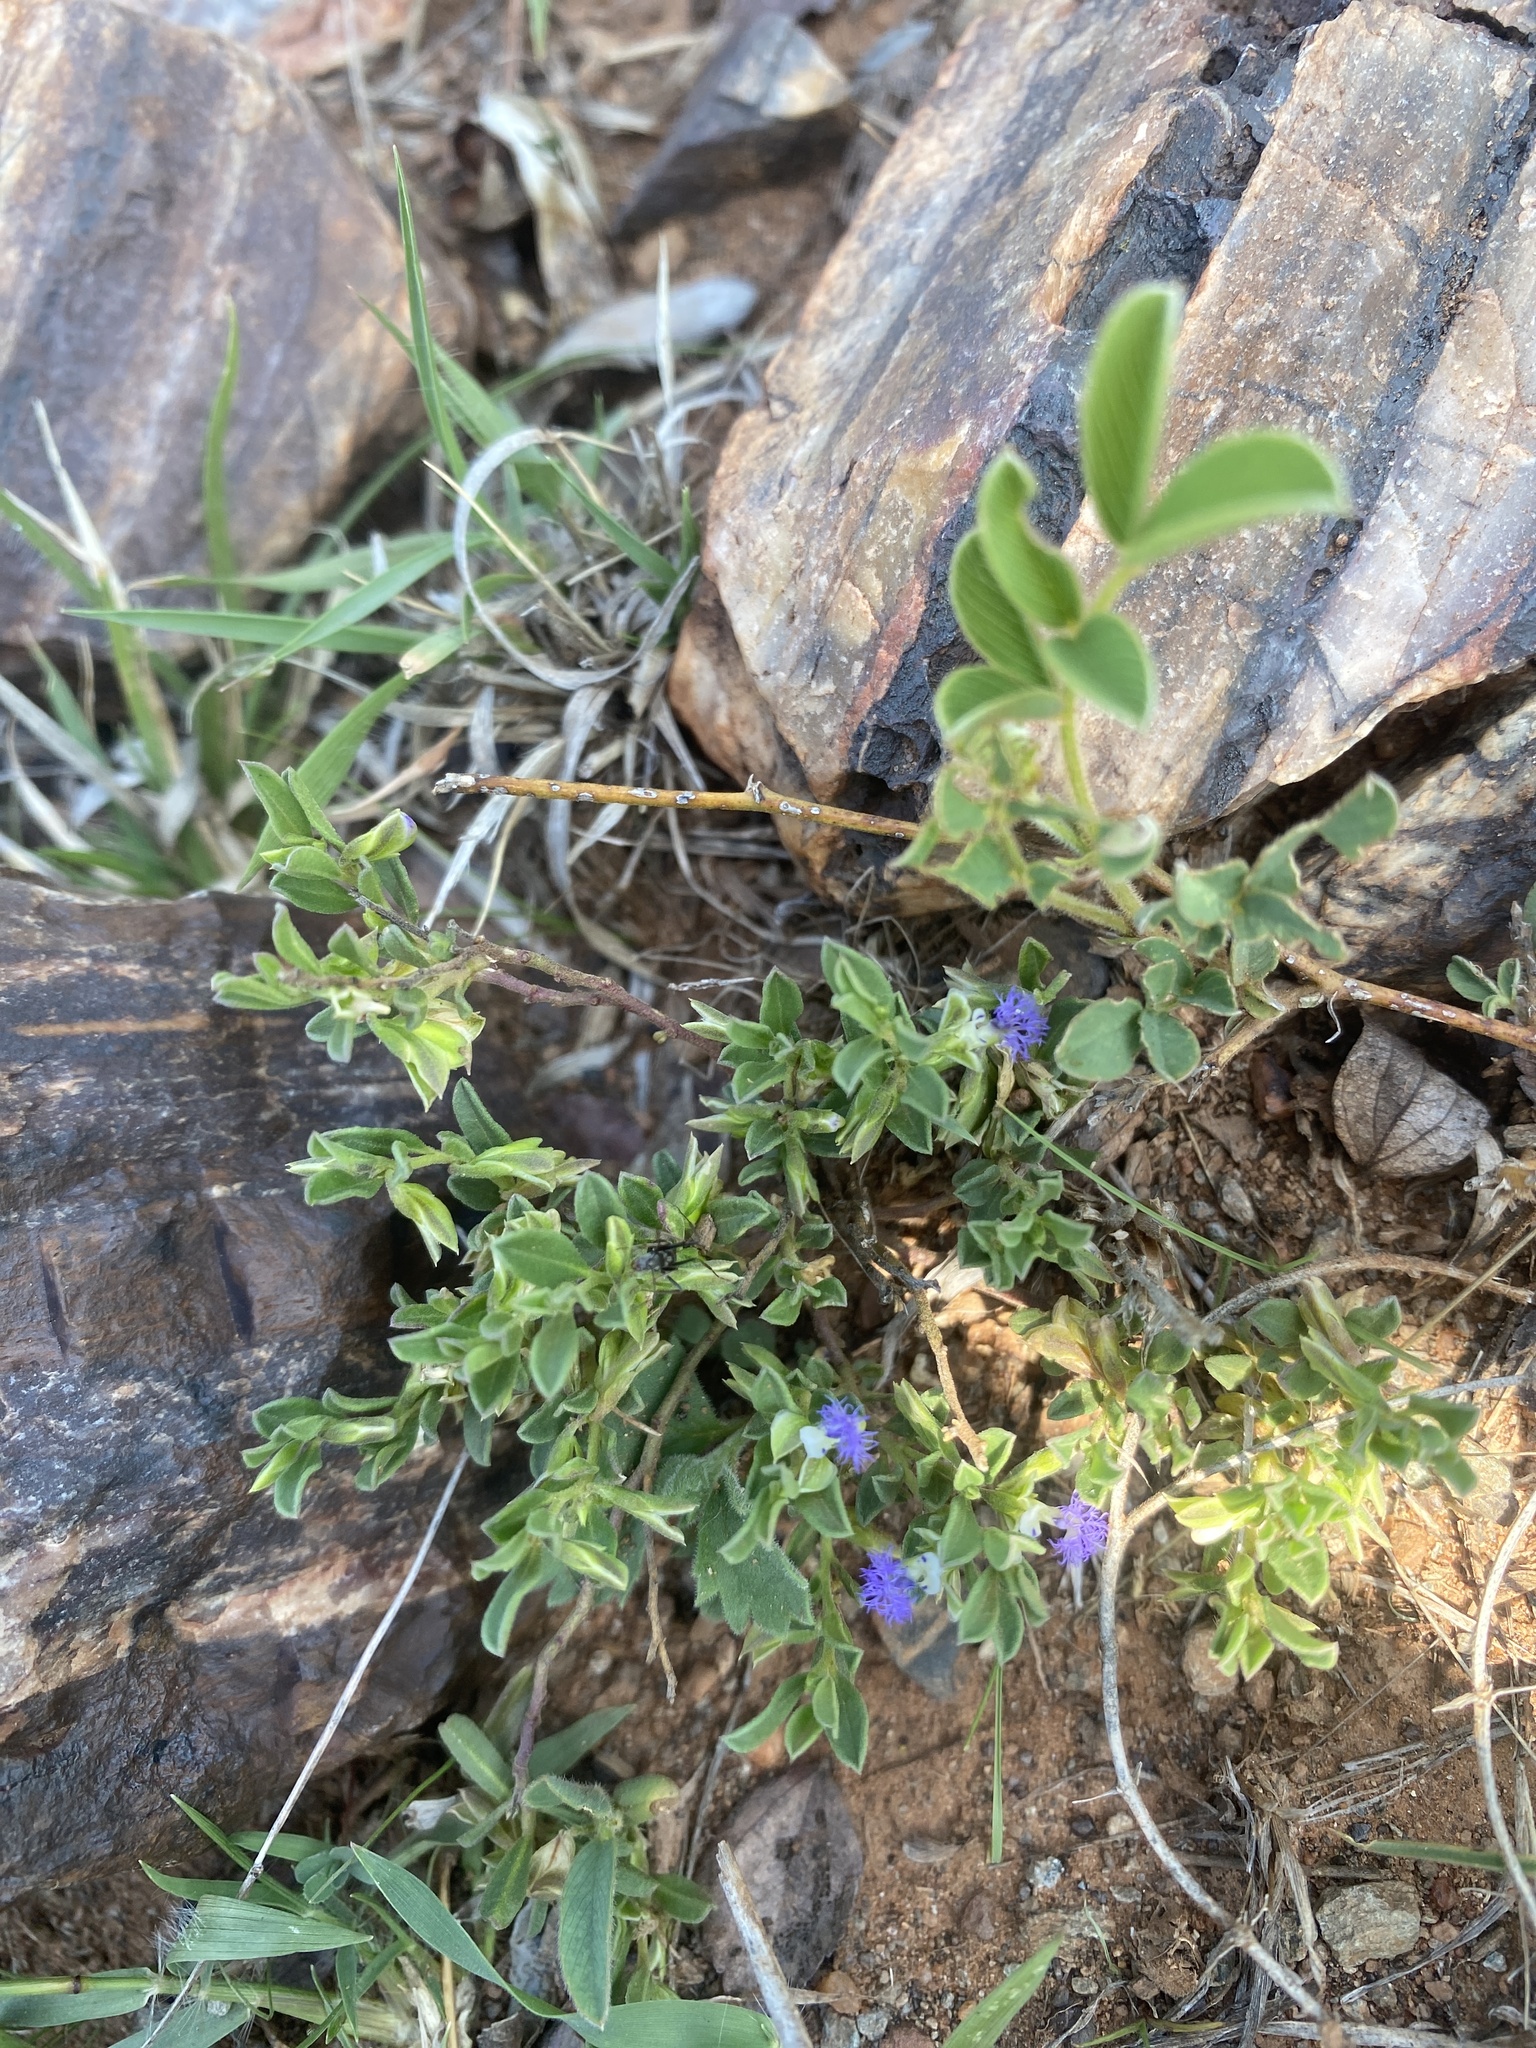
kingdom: Plantae
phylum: Tracheophyta
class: Magnoliopsida
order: Fabales
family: Polygalaceae
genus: Polygala
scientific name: Polygala gerrardii
